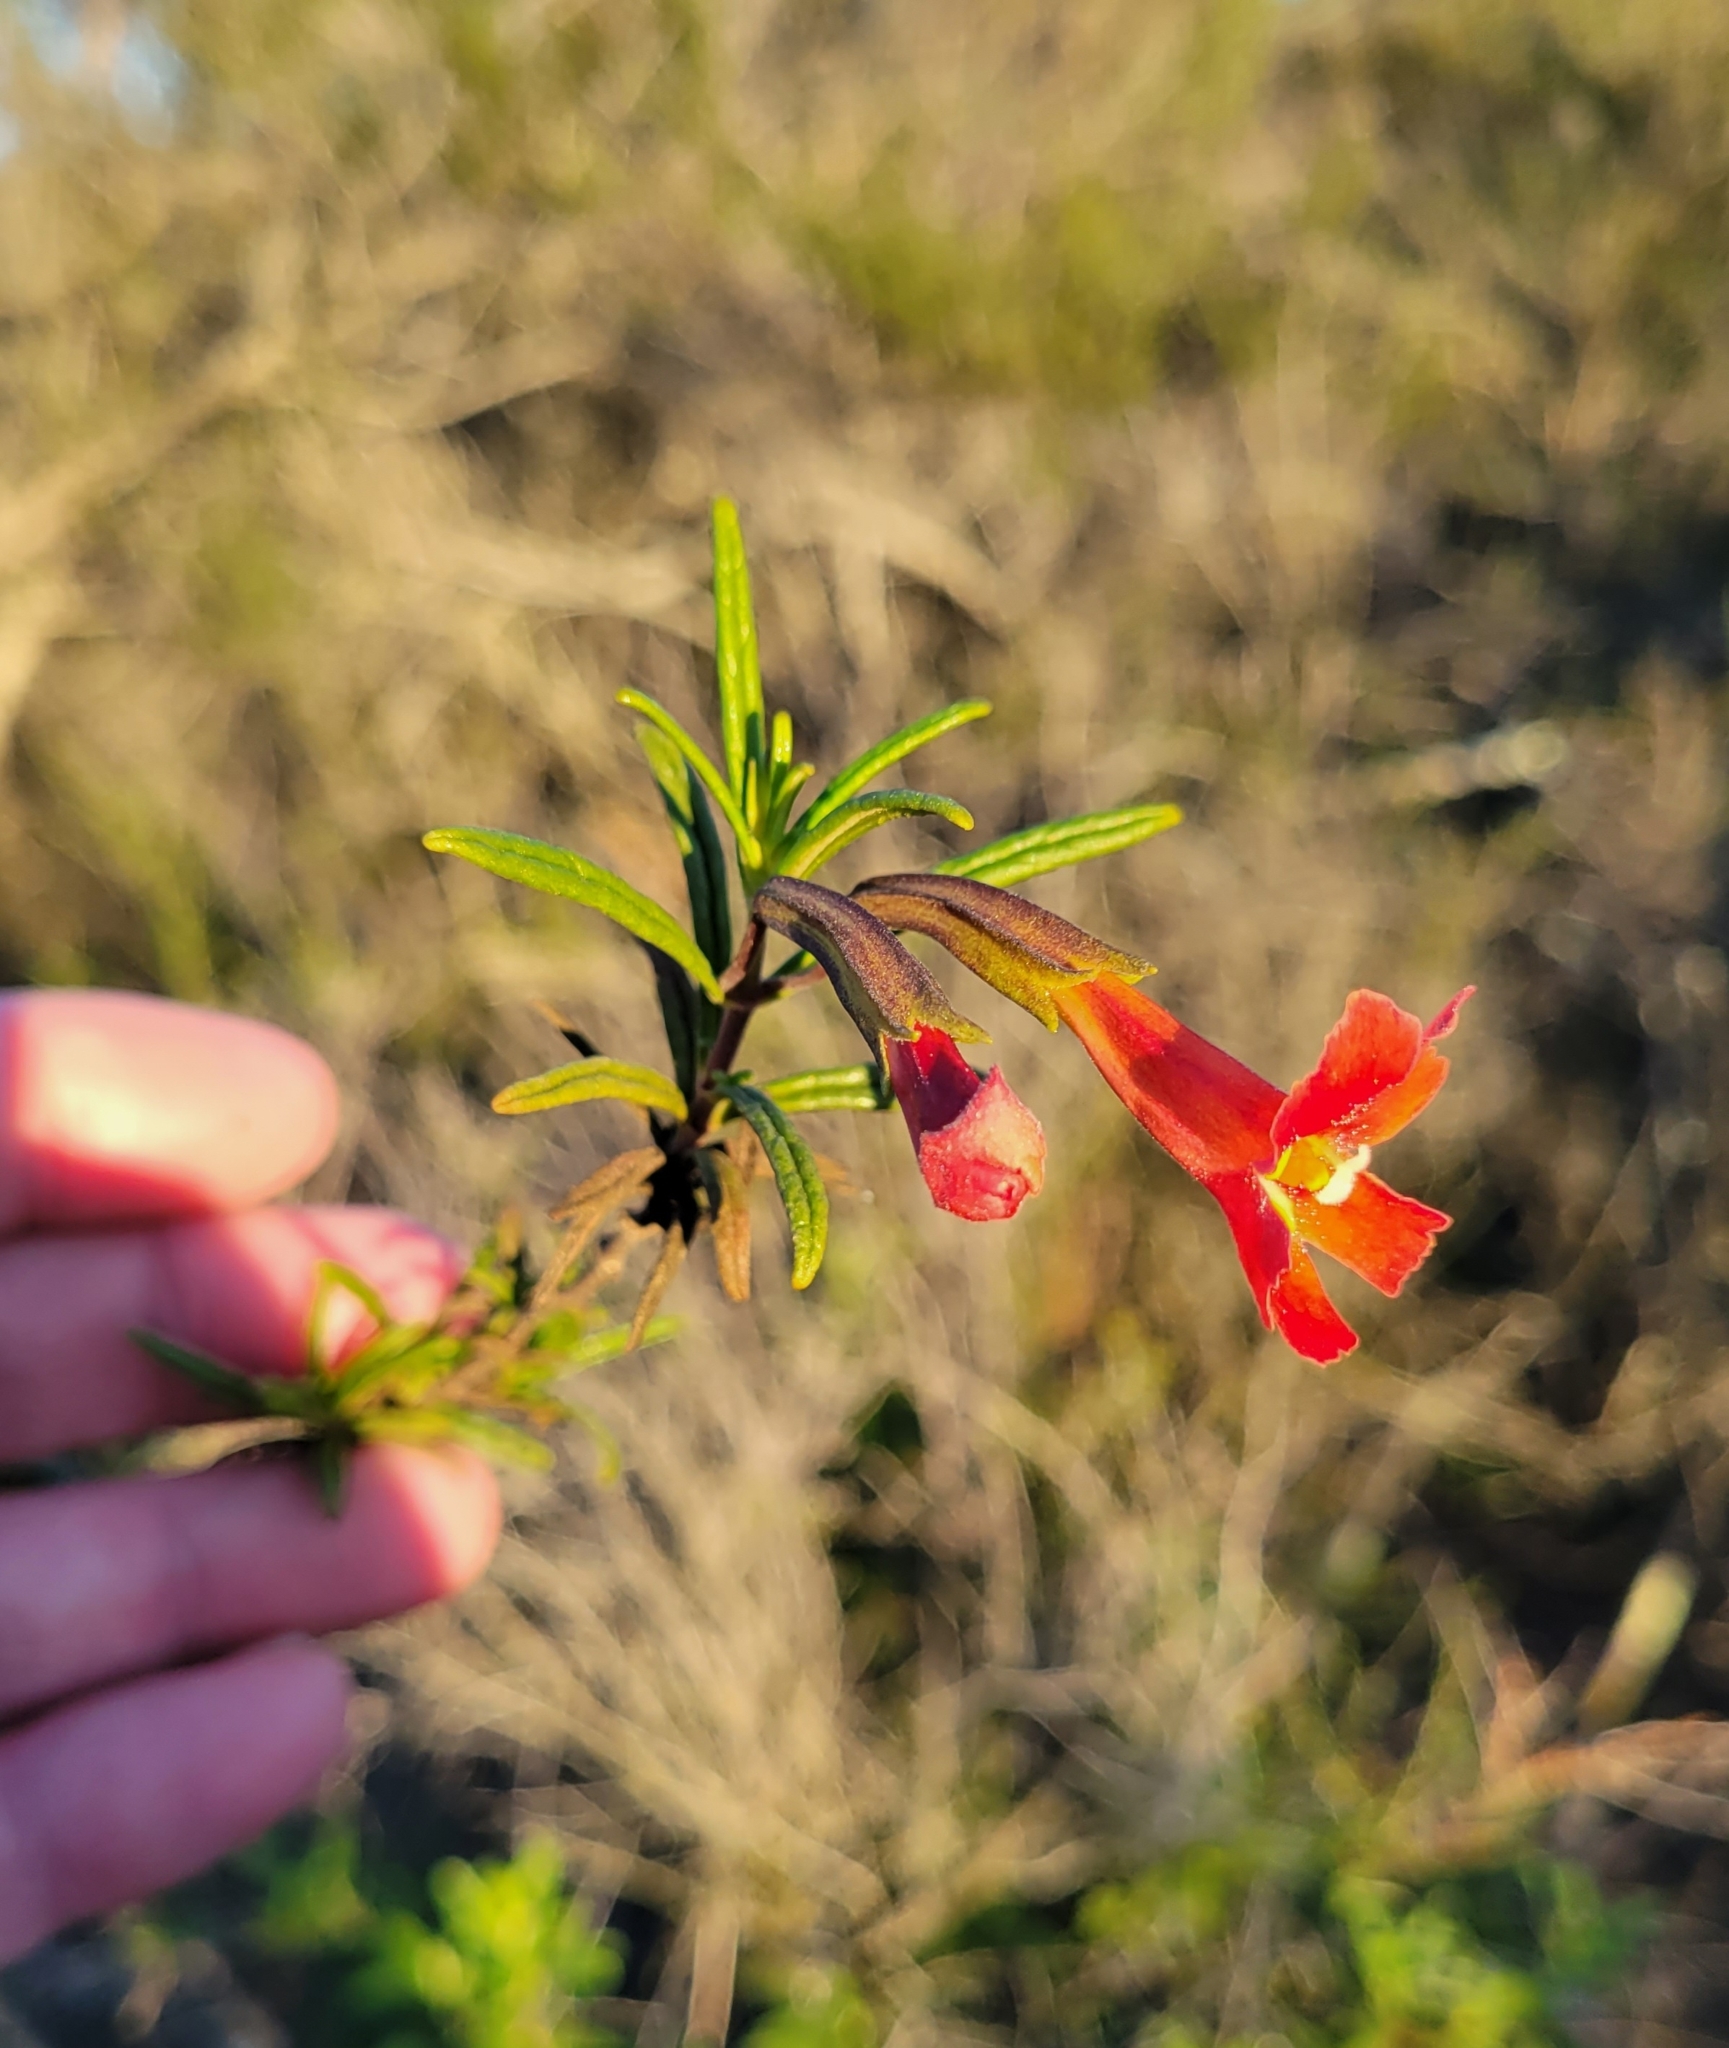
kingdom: Plantae
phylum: Tracheophyta
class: Magnoliopsida
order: Lamiales
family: Phrymaceae
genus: Diplacus
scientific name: Diplacus puniceus
